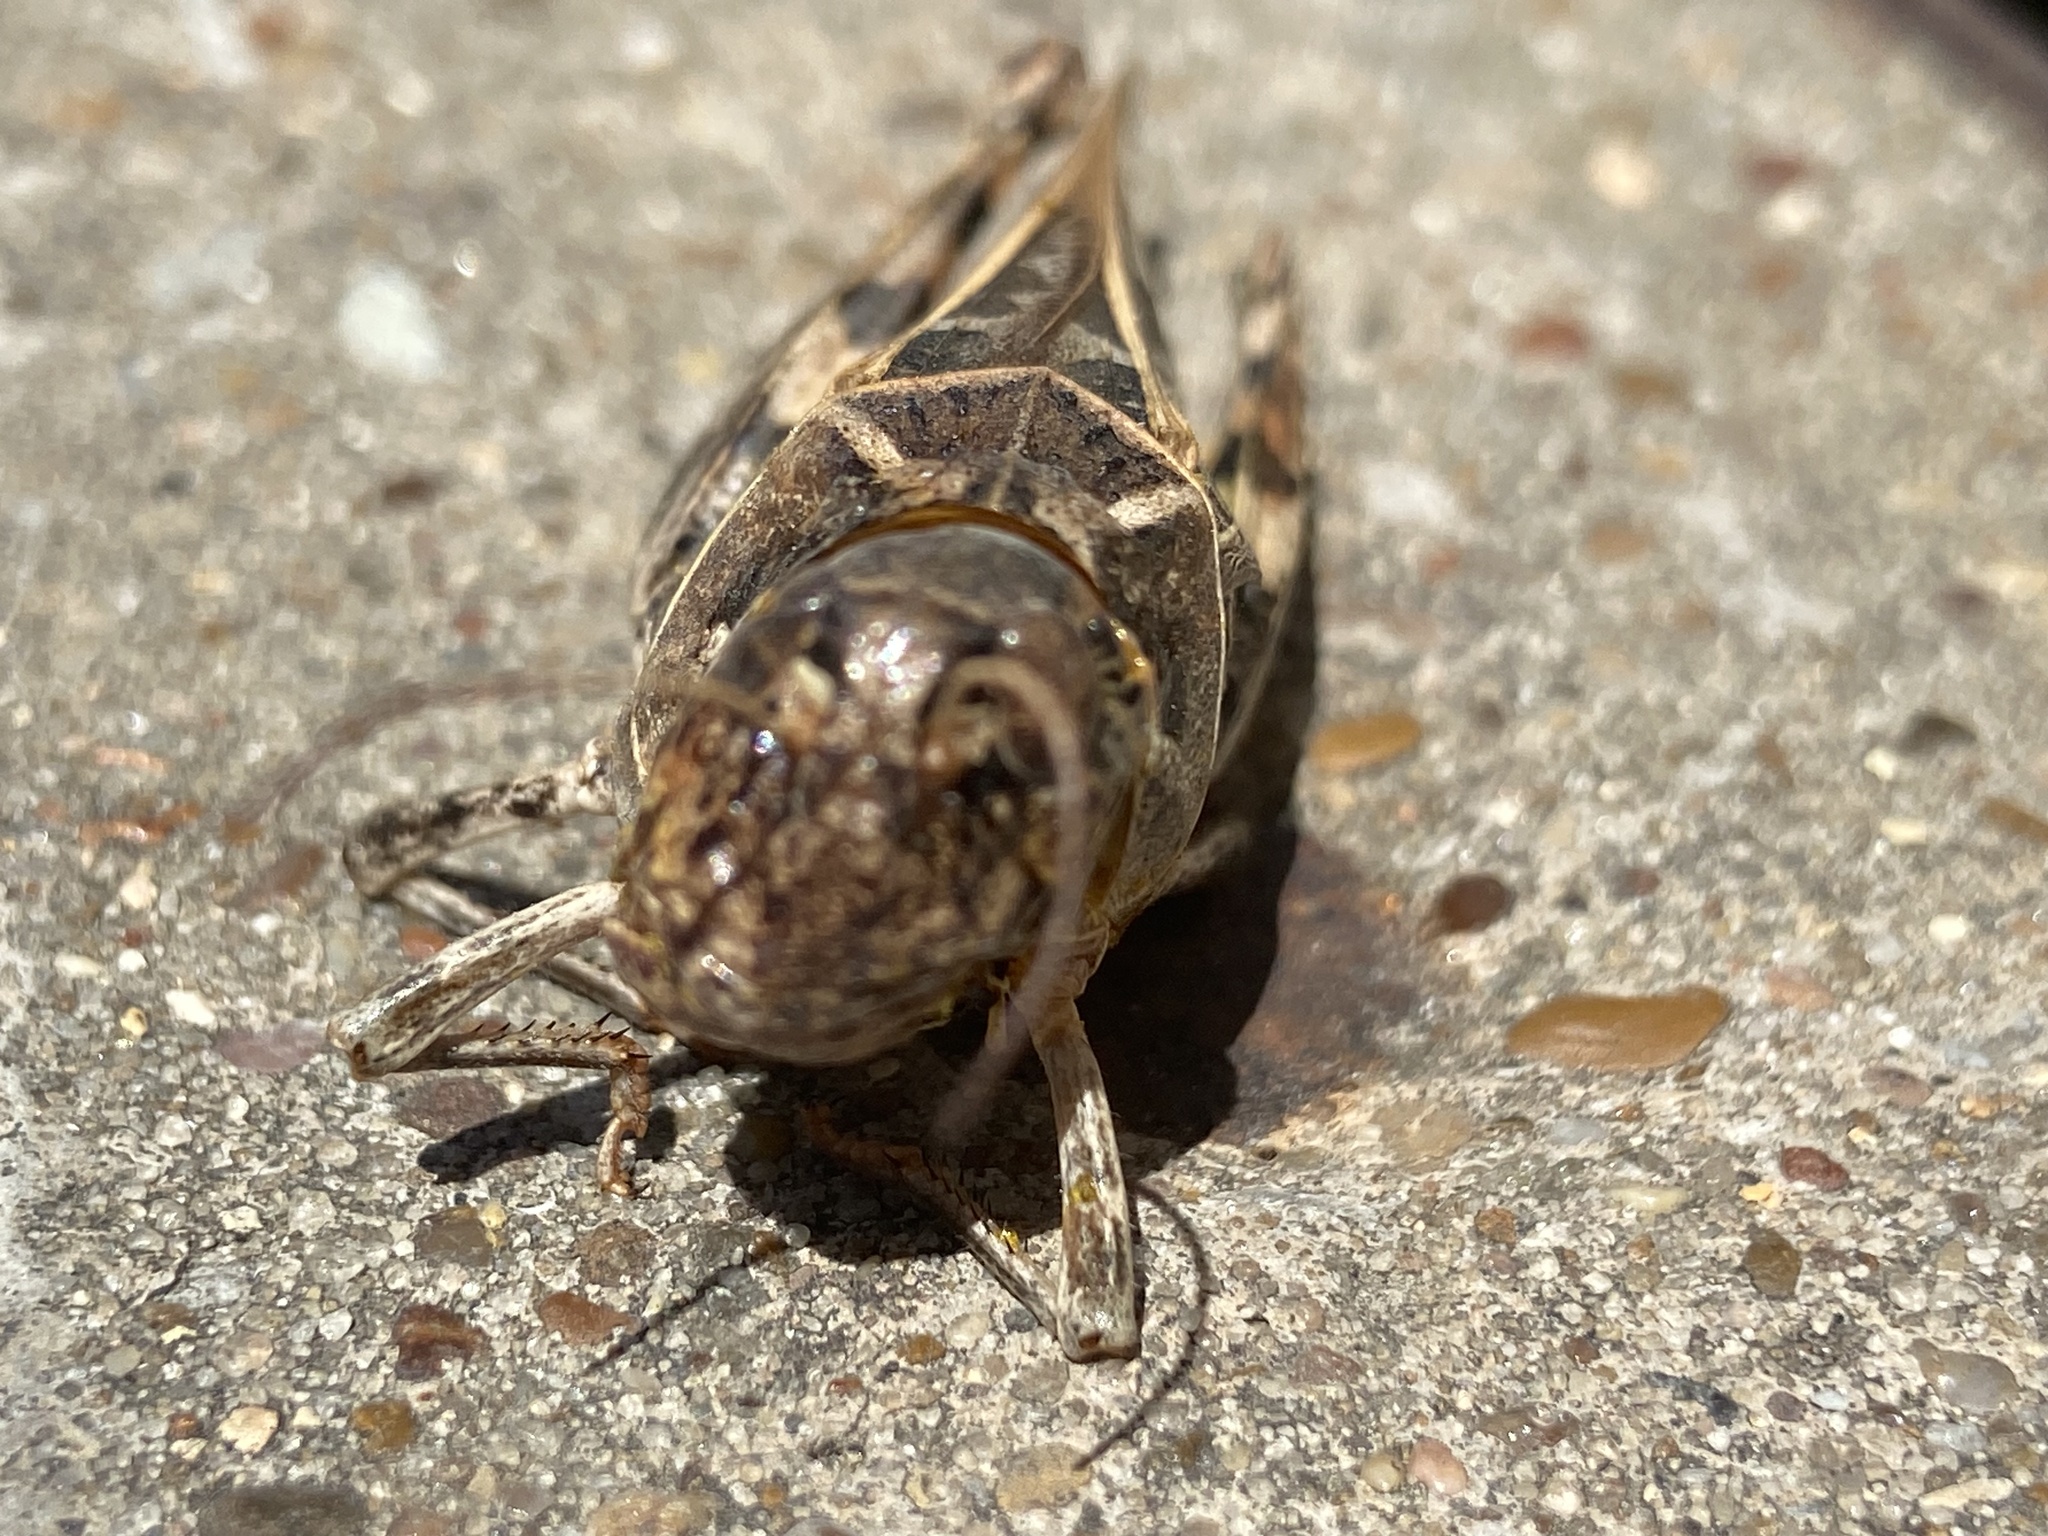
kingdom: Animalia
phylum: Arthropoda
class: Insecta
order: Orthoptera
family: Acrididae
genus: Hippiscus
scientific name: Hippiscus ocelote
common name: Wrinkled grasshopper
